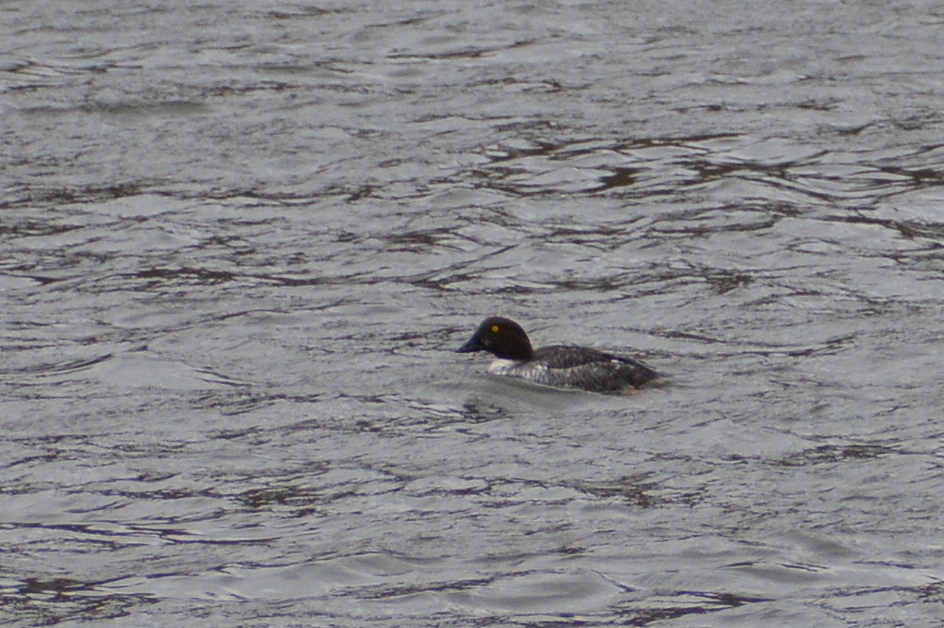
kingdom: Animalia
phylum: Chordata
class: Aves
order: Anseriformes
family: Anatidae
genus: Bucephala
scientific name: Bucephala clangula
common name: Common goldeneye
